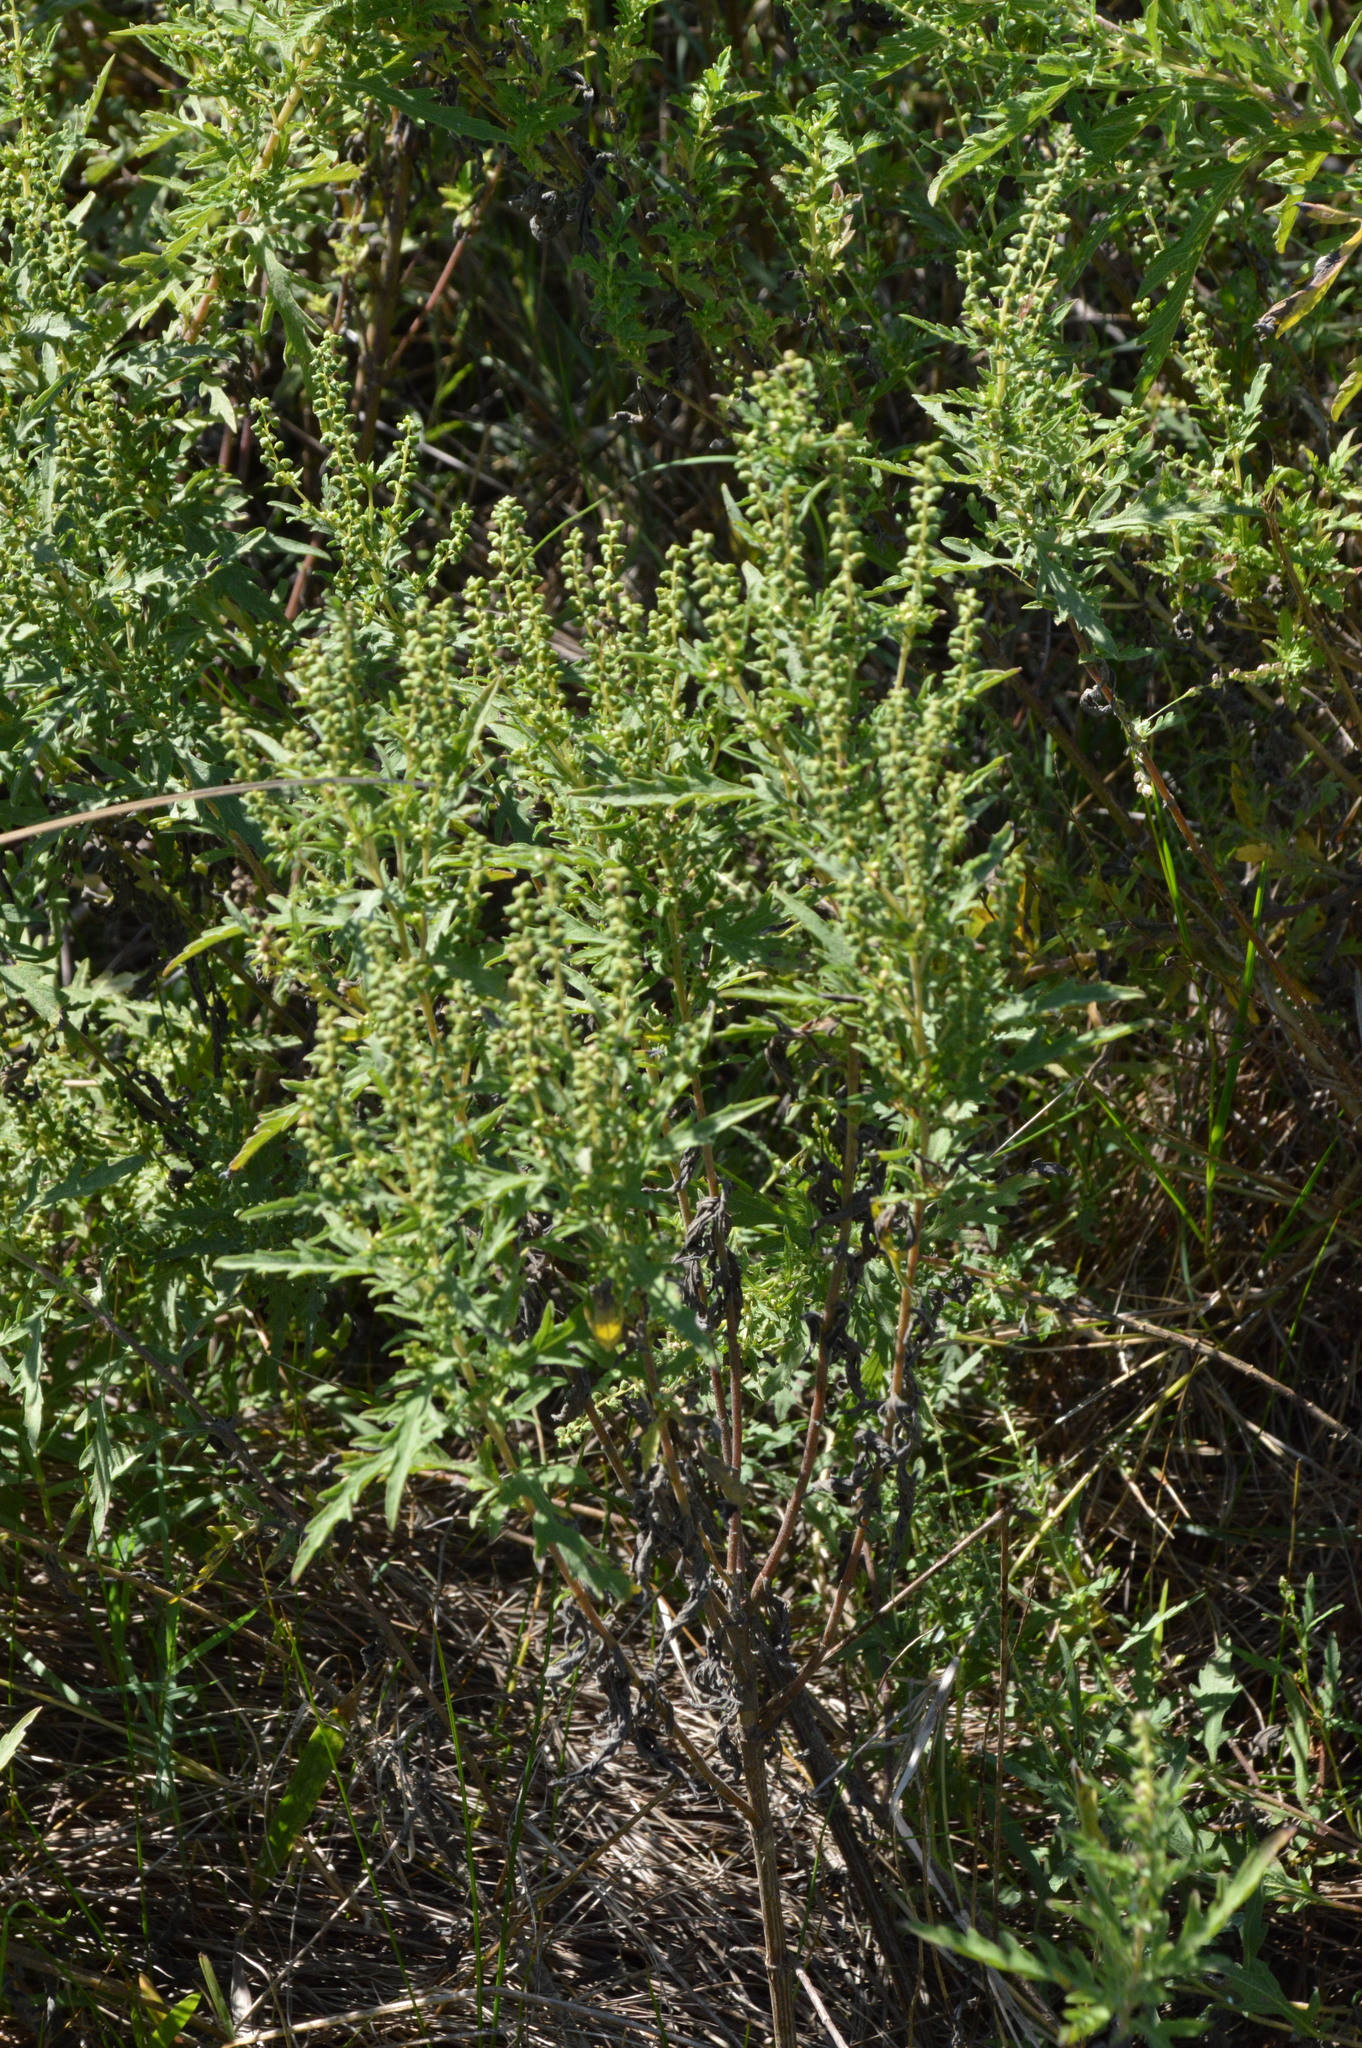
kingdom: Plantae
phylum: Tracheophyta
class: Magnoliopsida
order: Asterales
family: Asteraceae
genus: Ambrosia
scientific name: Ambrosia psilostachya
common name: Perennial ragweed
